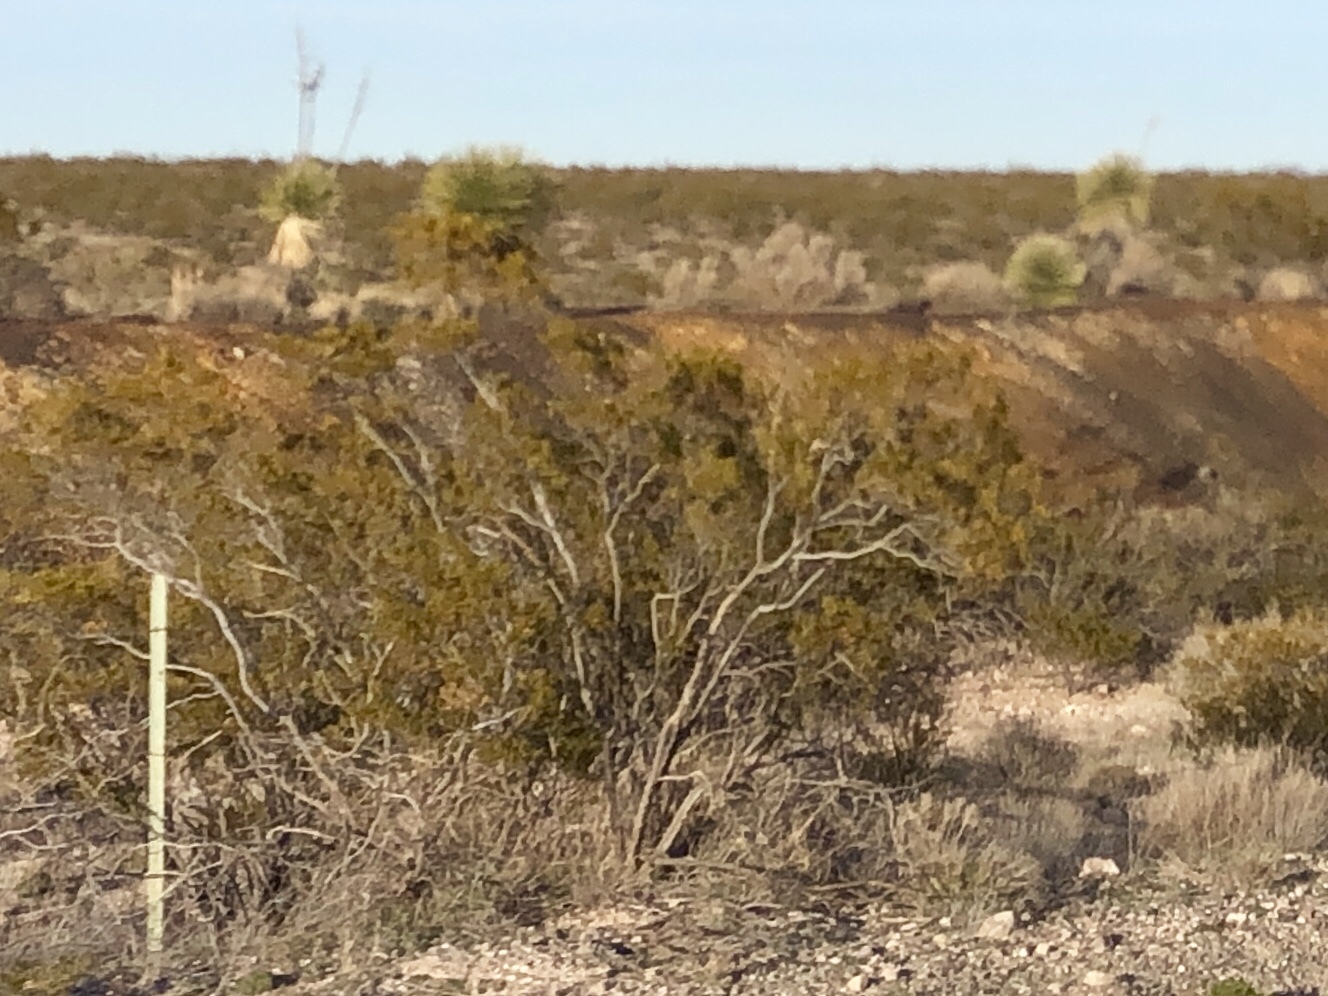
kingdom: Plantae
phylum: Tracheophyta
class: Magnoliopsida
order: Zygophyllales
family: Zygophyllaceae
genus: Larrea
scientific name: Larrea tridentata
